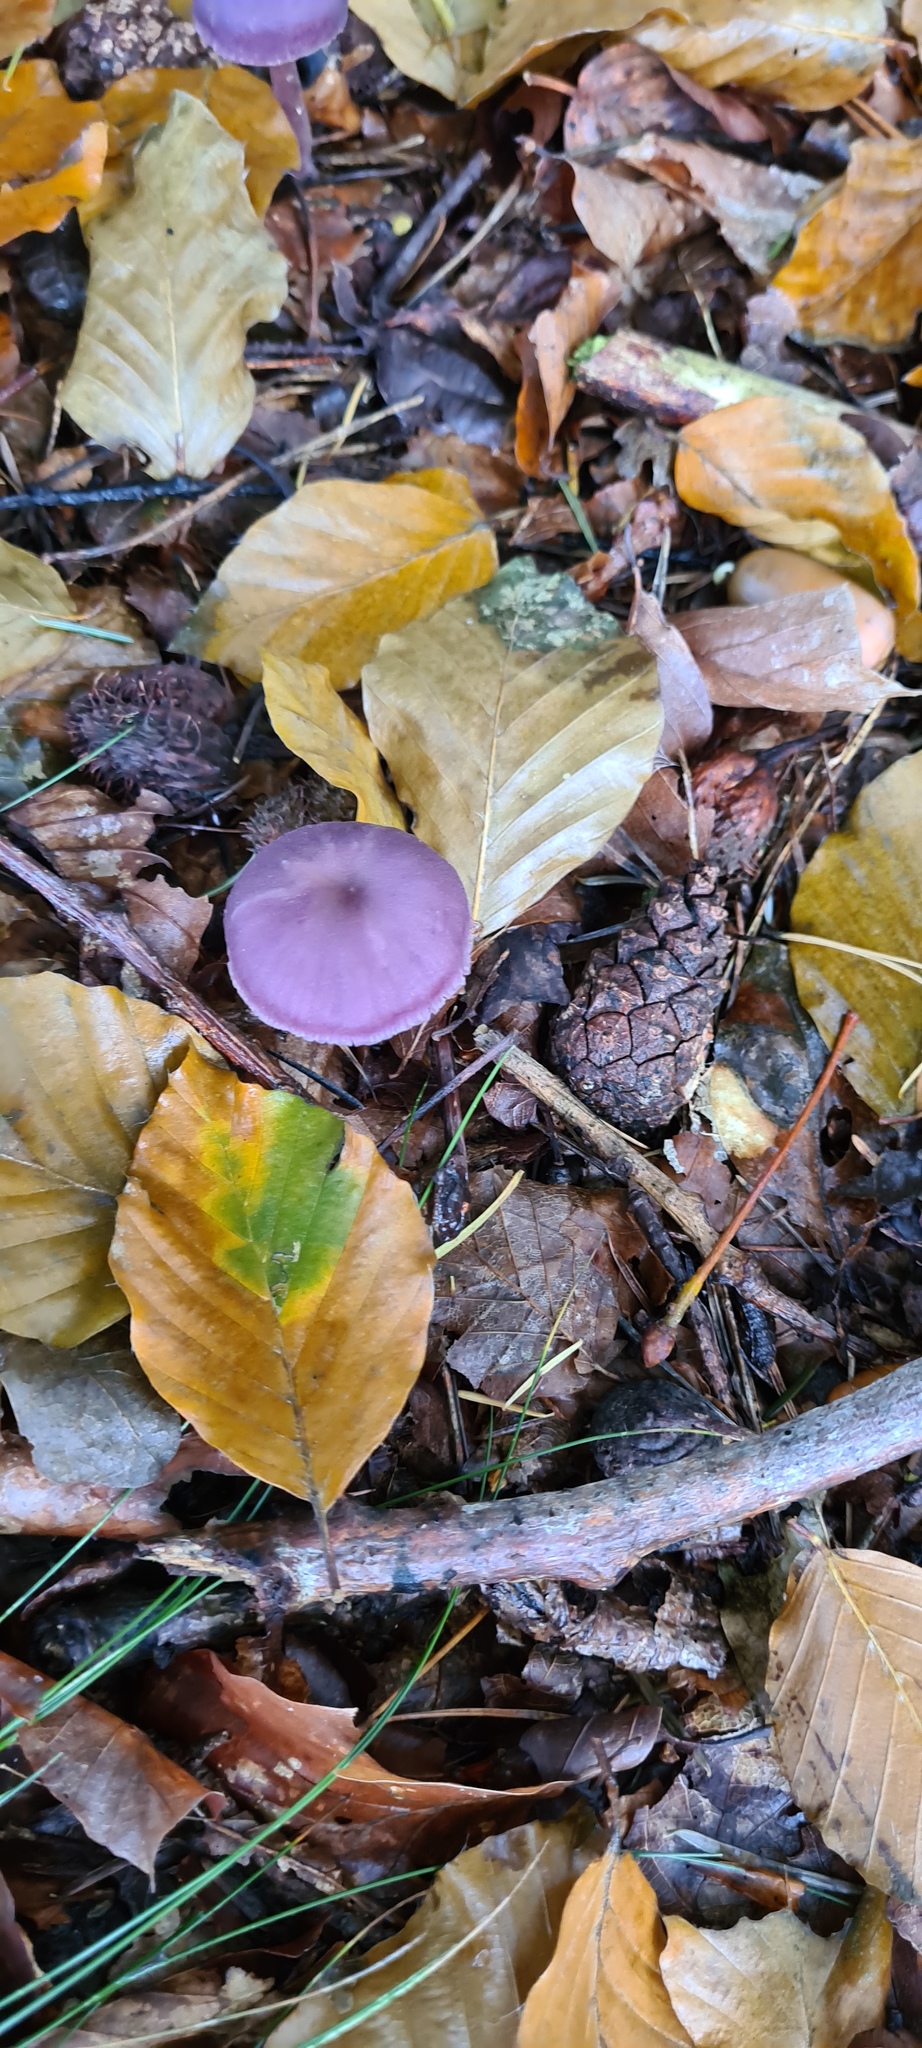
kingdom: Fungi
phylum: Basidiomycota
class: Agaricomycetes
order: Agaricales
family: Hydnangiaceae
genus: Laccaria
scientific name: Laccaria amethystina
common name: Amethyst deceiver
